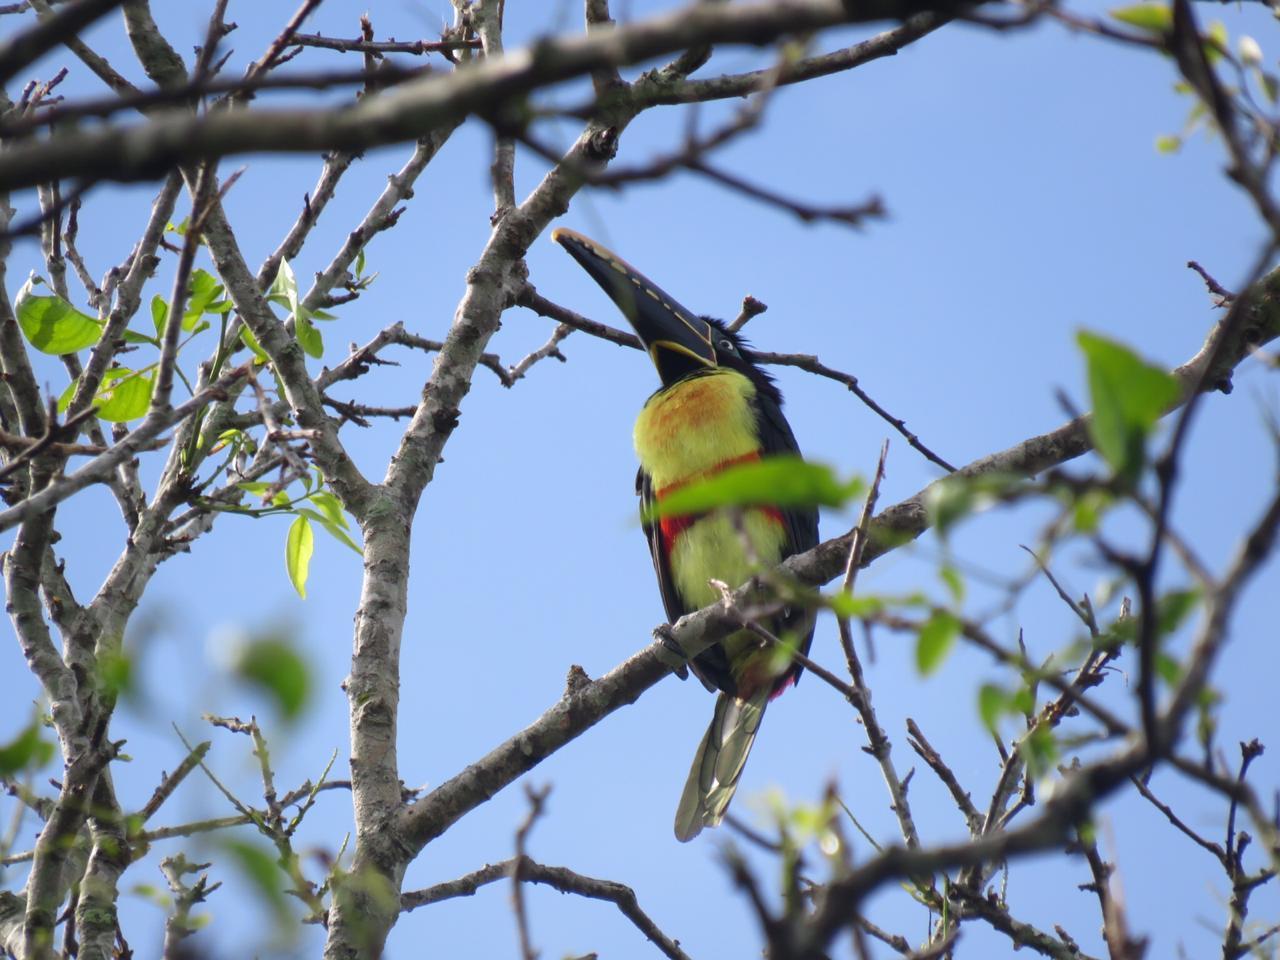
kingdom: Animalia
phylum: Chordata
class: Aves
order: Piciformes
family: Ramphastidae
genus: Pteroglossus
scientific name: Pteroglossus castanotis
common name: Chestnut-eared aracari
